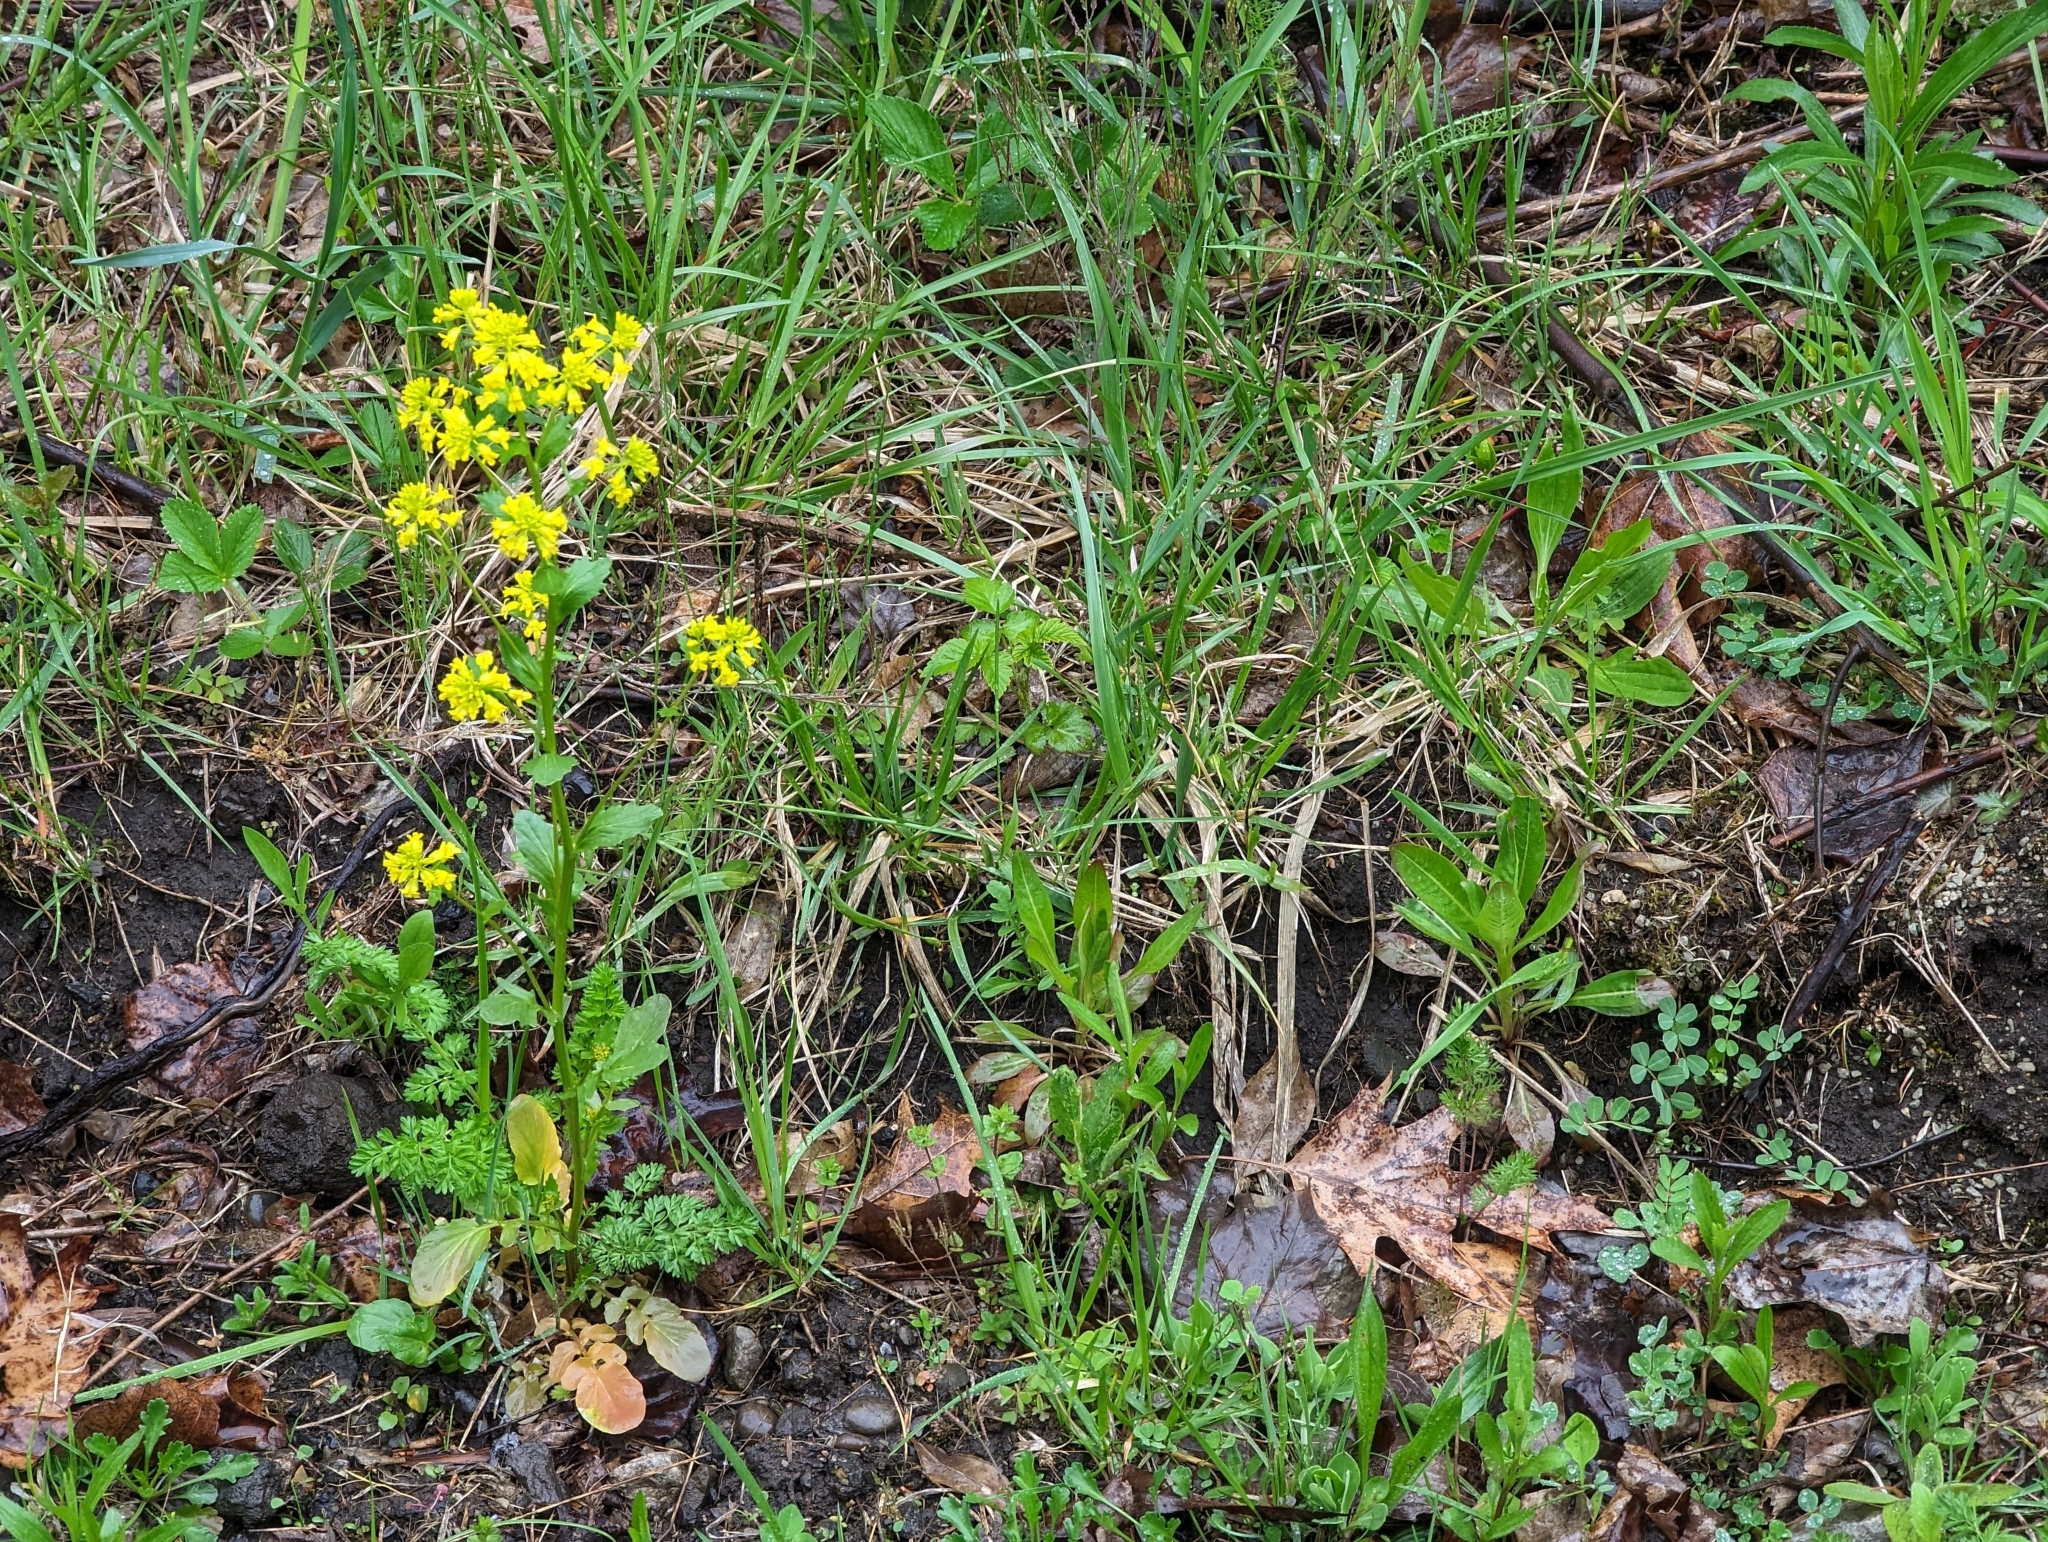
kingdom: Plantae
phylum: Tracheophyta
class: Magnoliopsida
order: Brassicales
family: Brassicaceae
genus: Barbarea
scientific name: Barbarea vulgaris
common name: Cressy-greens
